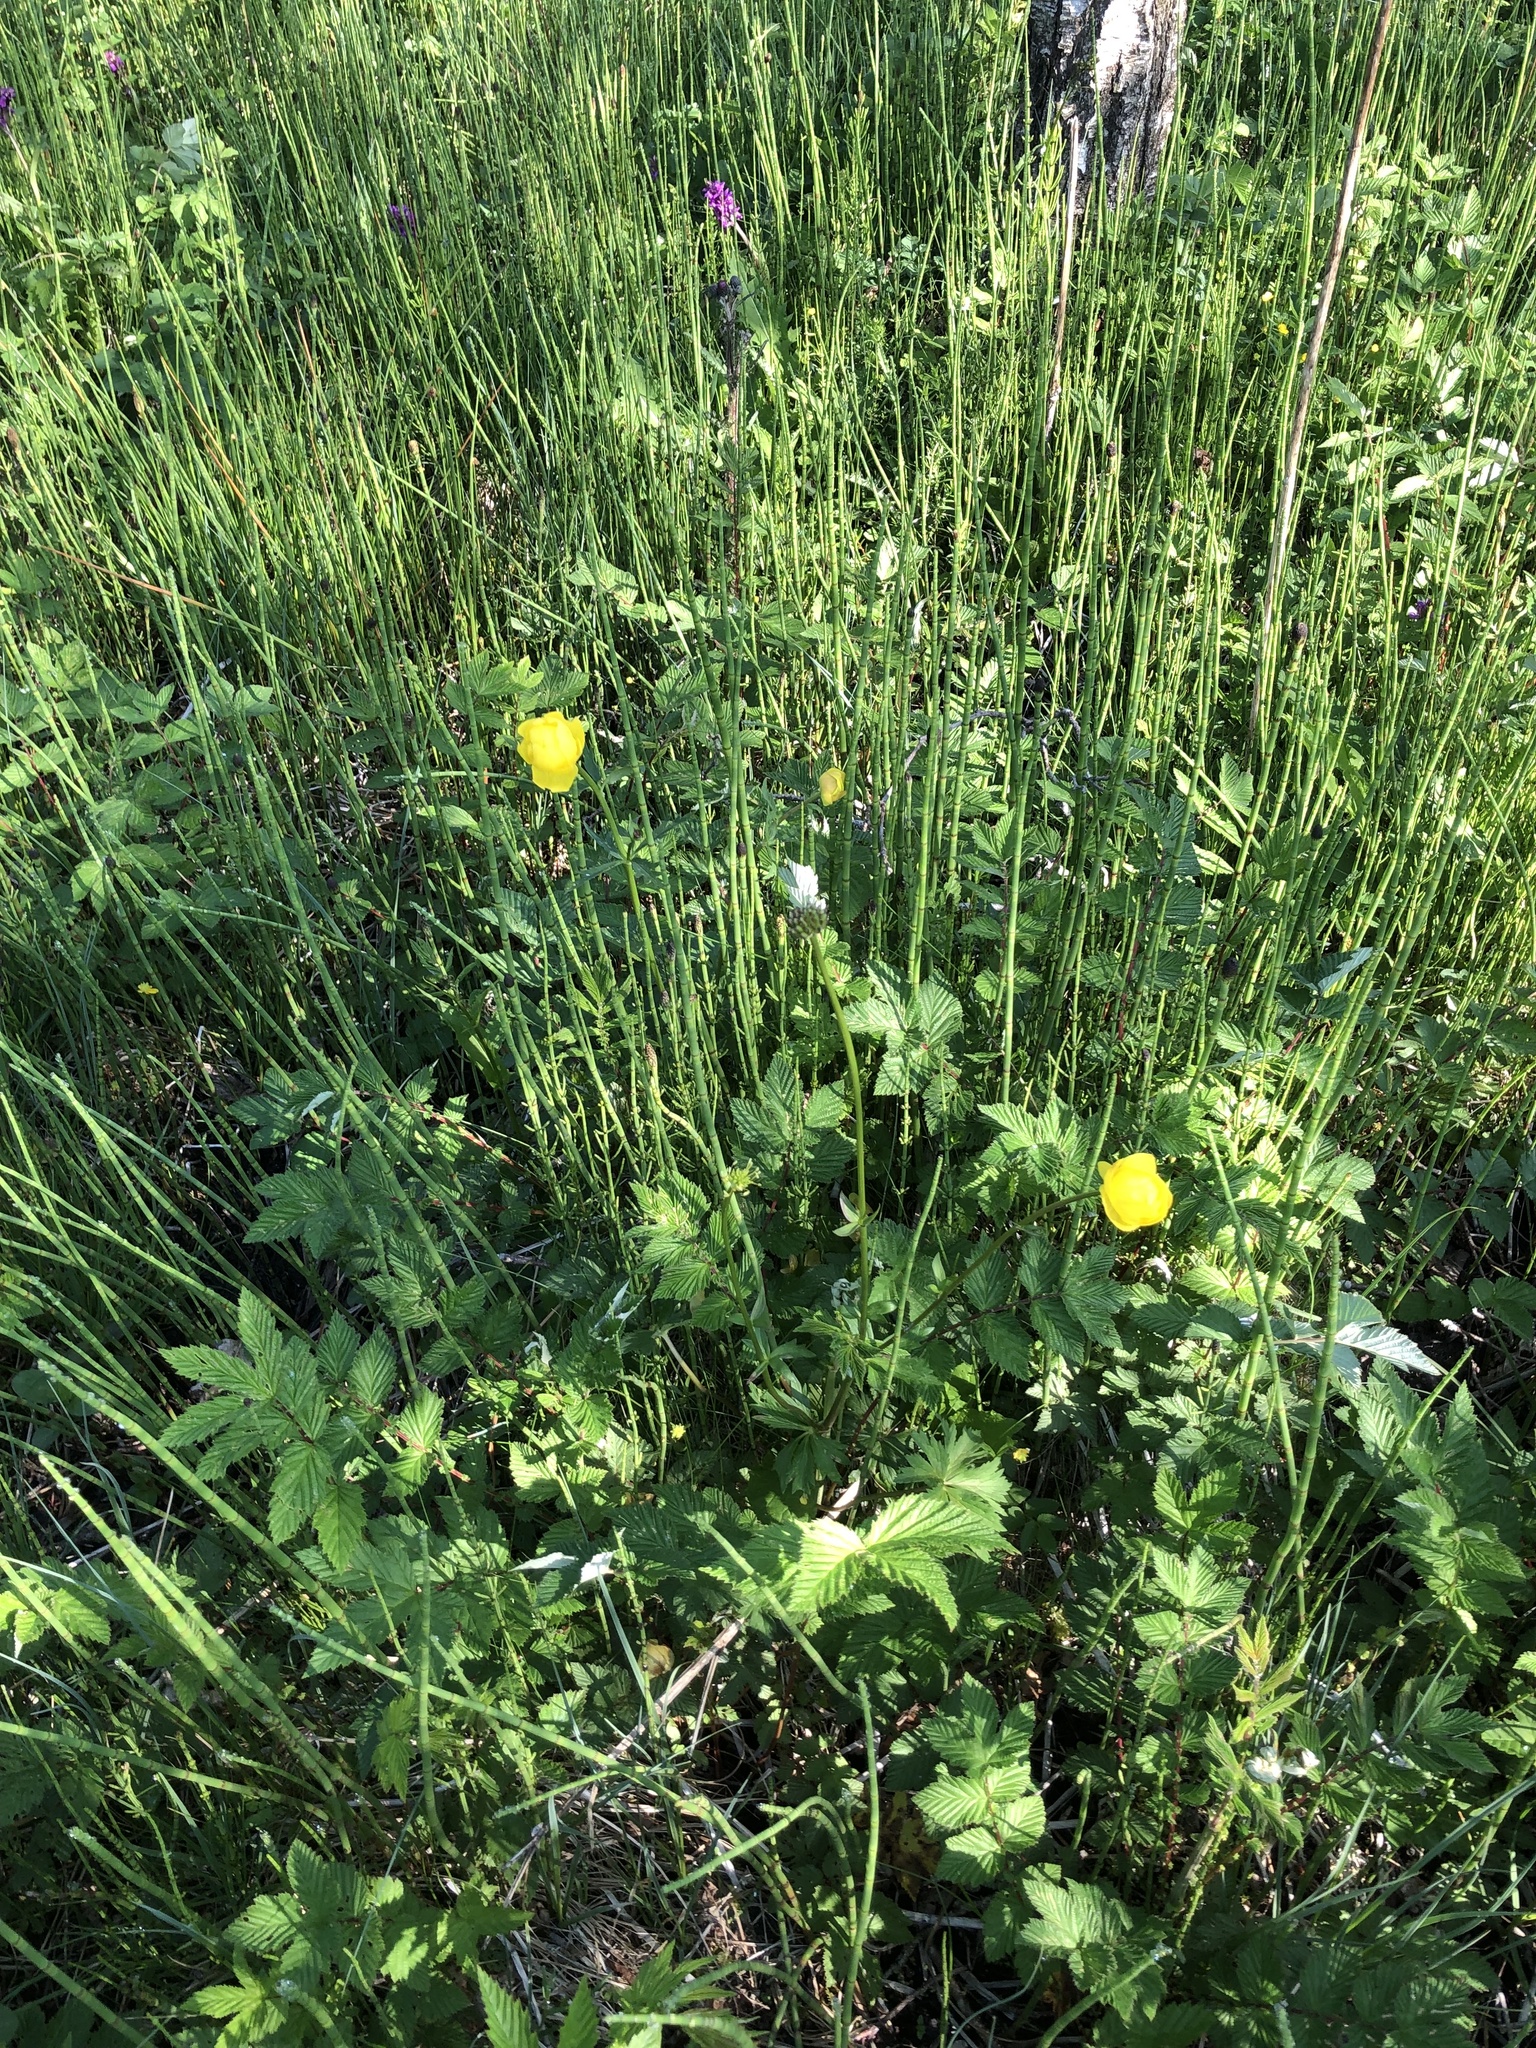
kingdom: Plantae
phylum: Tracheophyta
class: Magnoliopsida
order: Ranunculales
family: Ranunculaceae
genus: Trollius
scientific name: Trollius europaeus
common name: European globeflower
